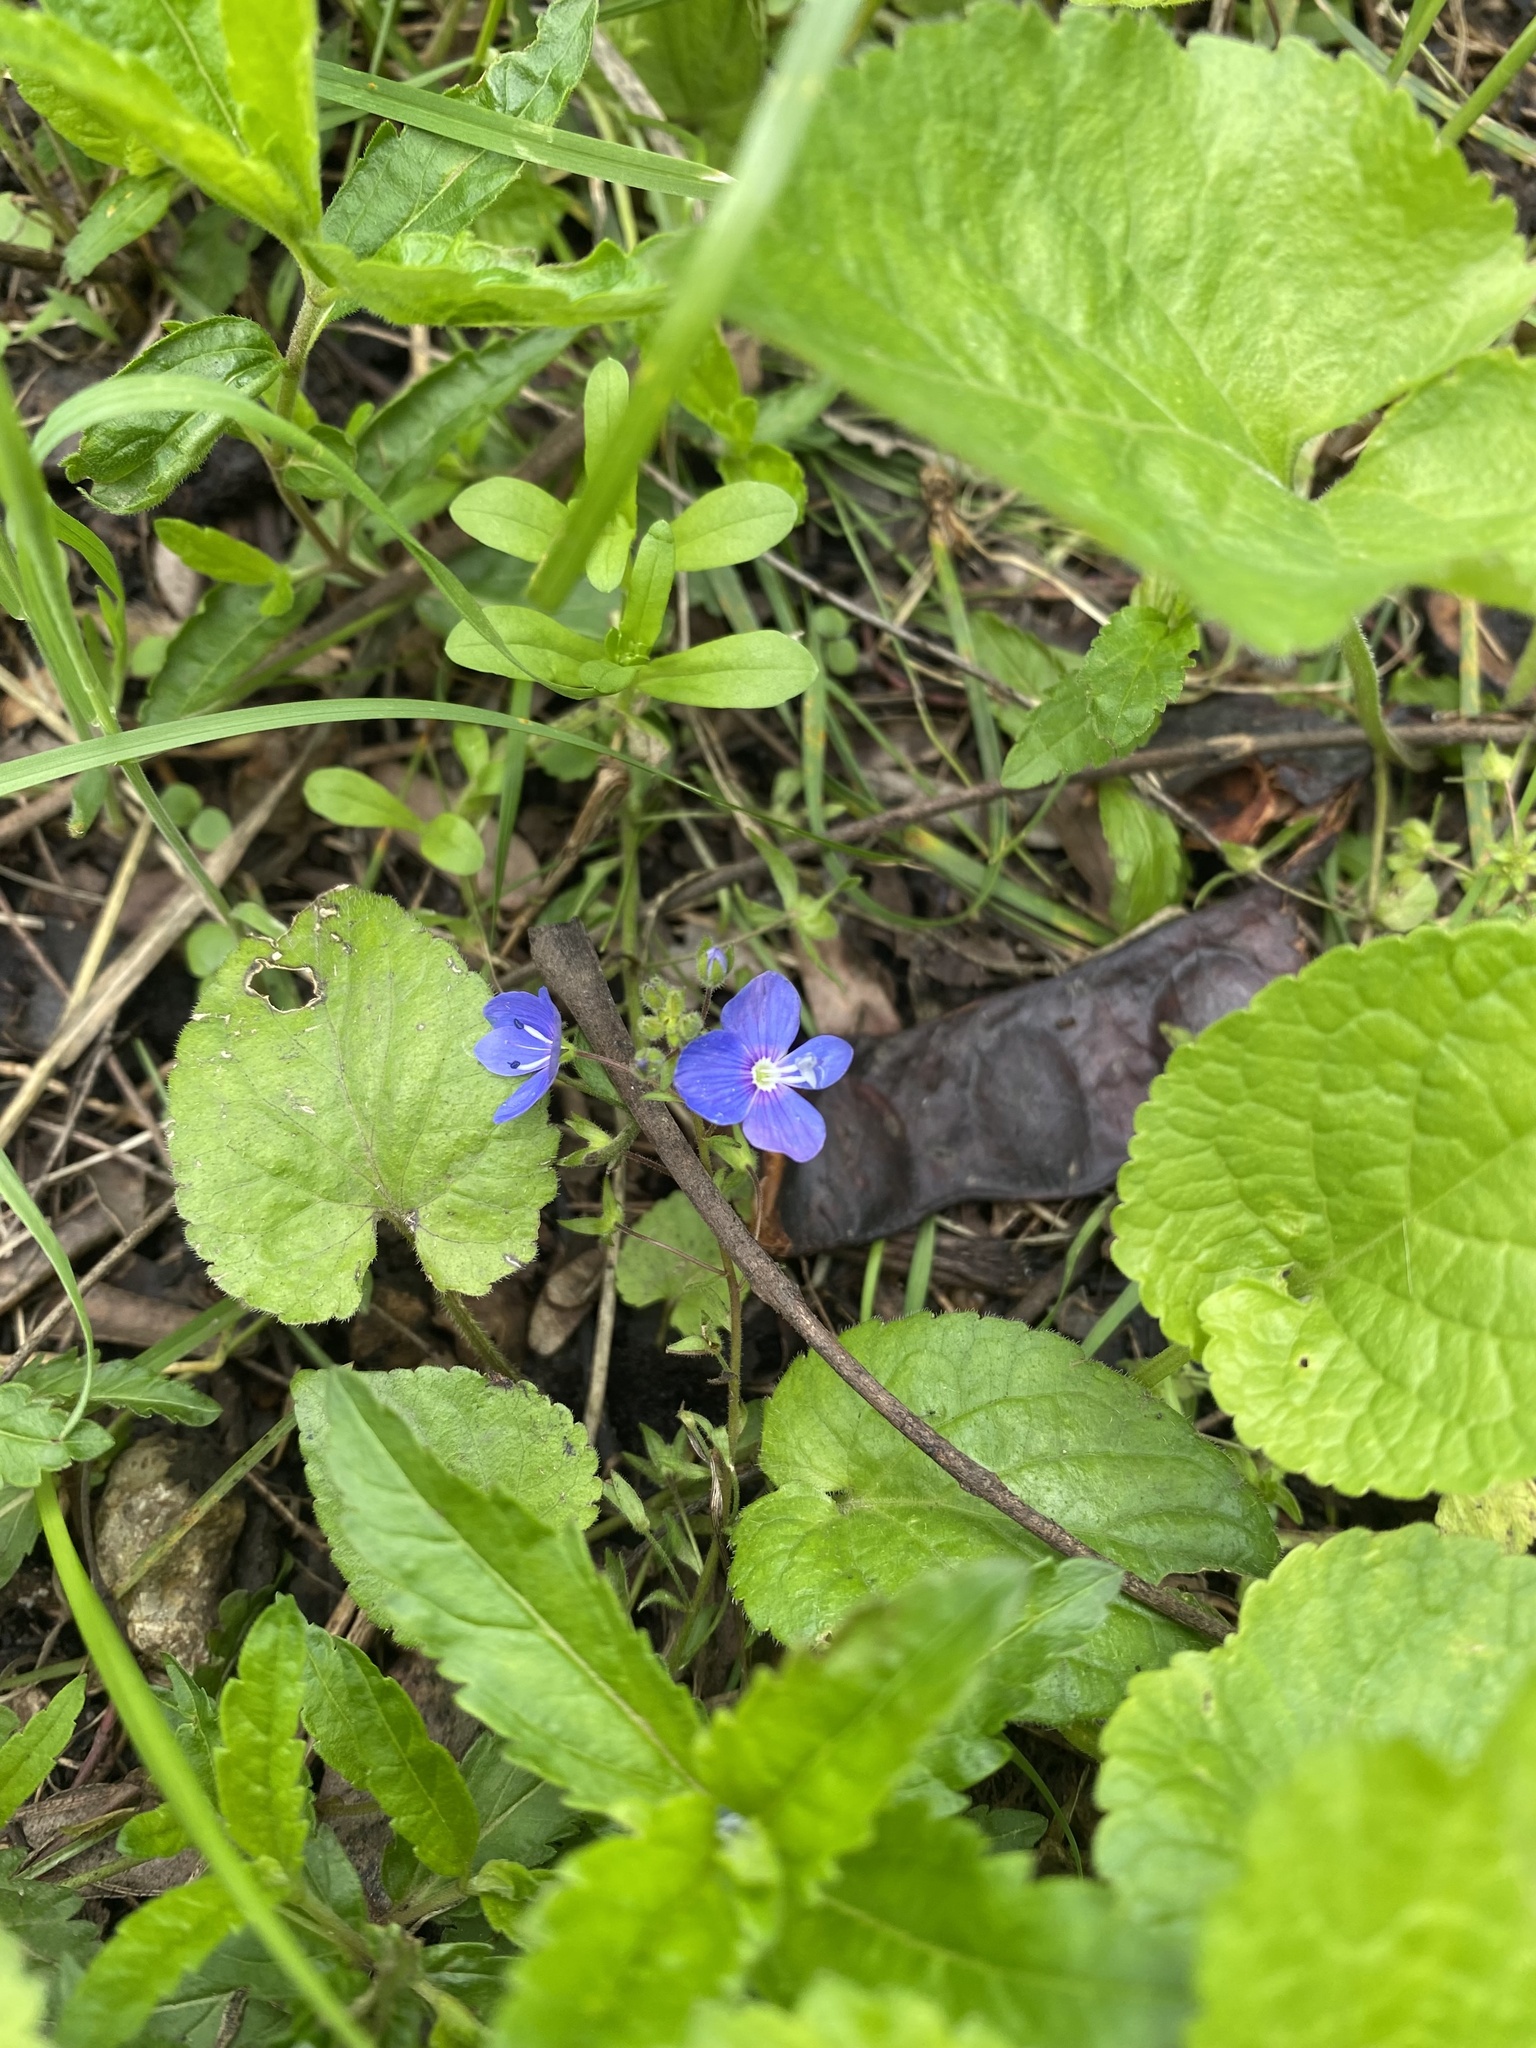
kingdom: Plantae
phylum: Tracheophyta
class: Magnoliopsida
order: Lamiales
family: Plantaginaceae
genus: Veronica
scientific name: Veronica
